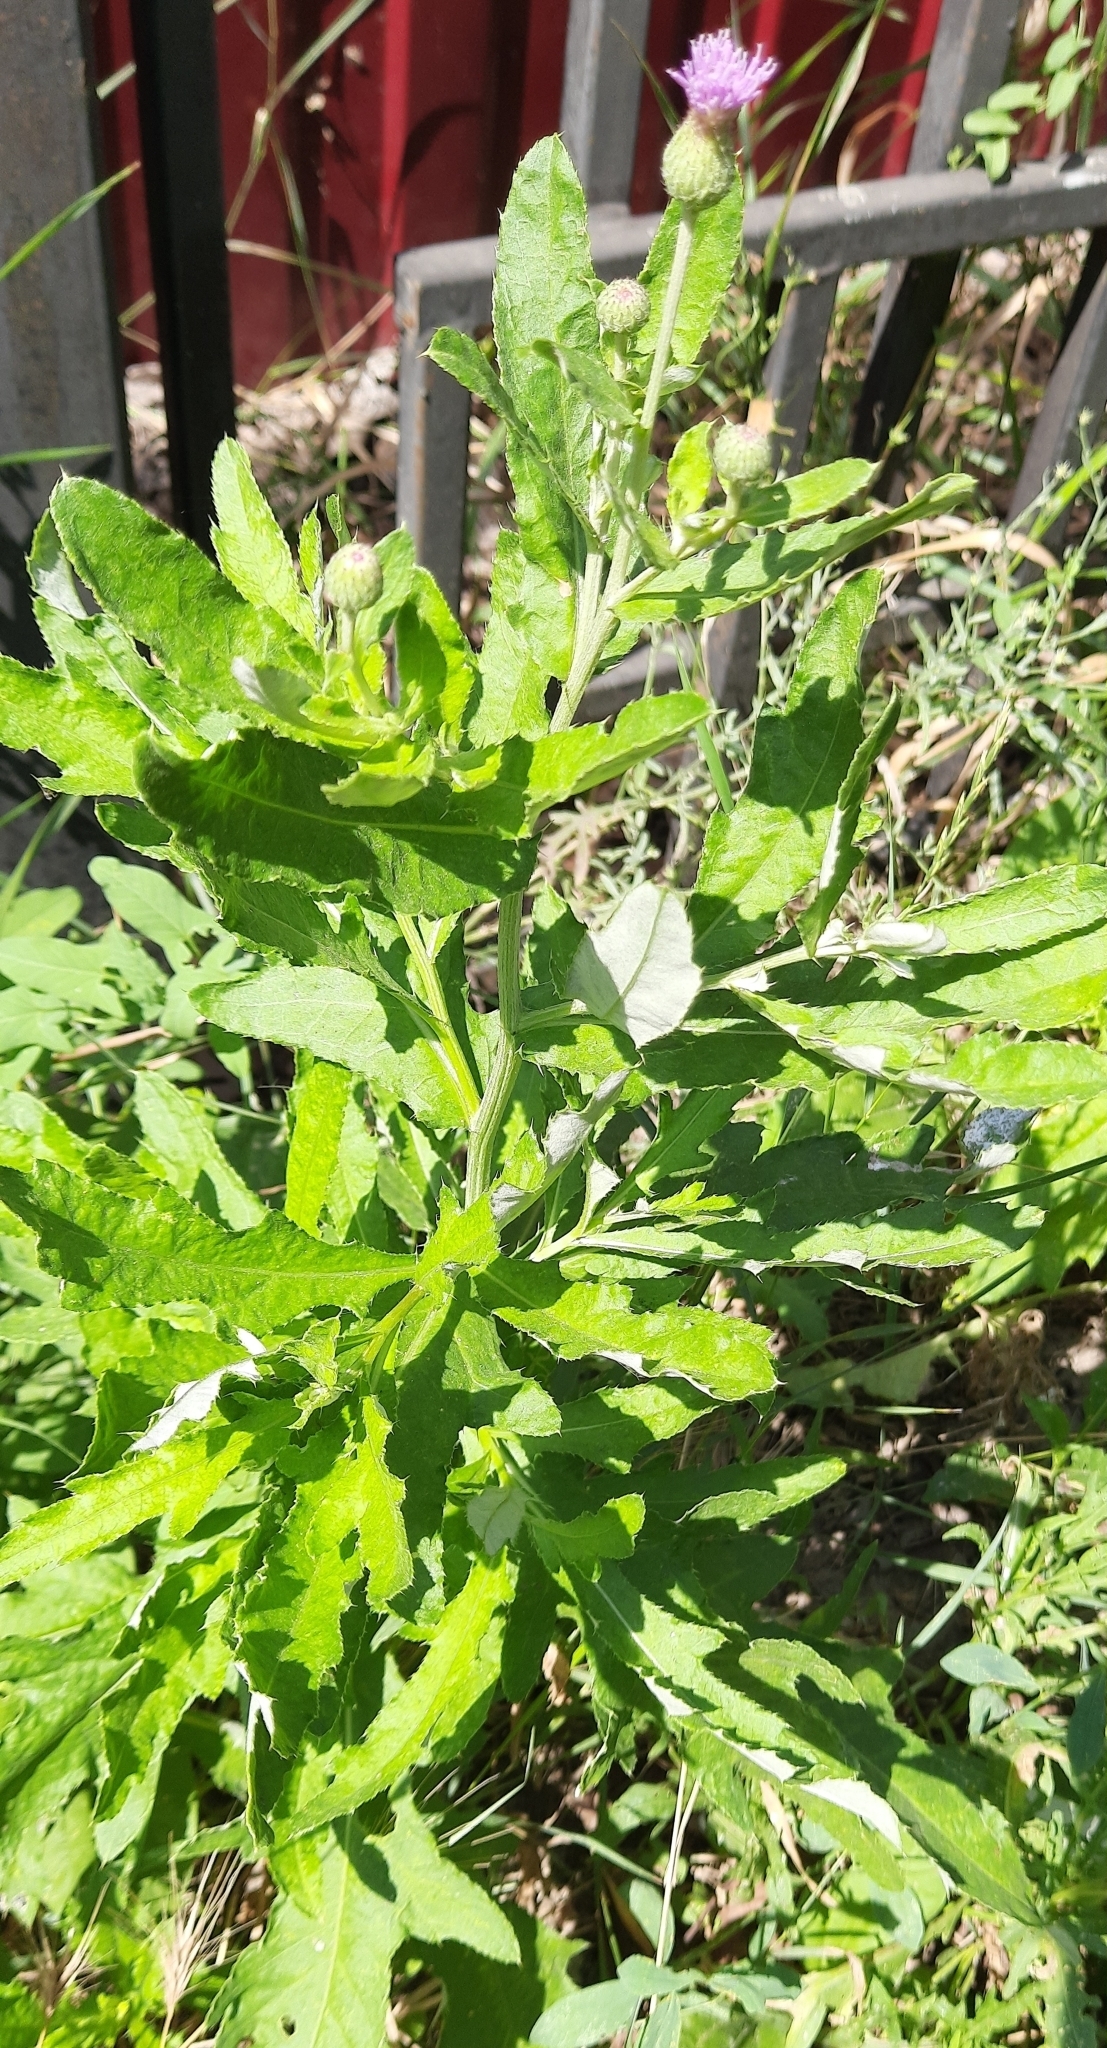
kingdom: Plantae
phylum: Tracheophyta
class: Magnoliopsida
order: Asterales
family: Asteraceae
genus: Cirsium
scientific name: Cirsium arvense
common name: Creeping thistle
